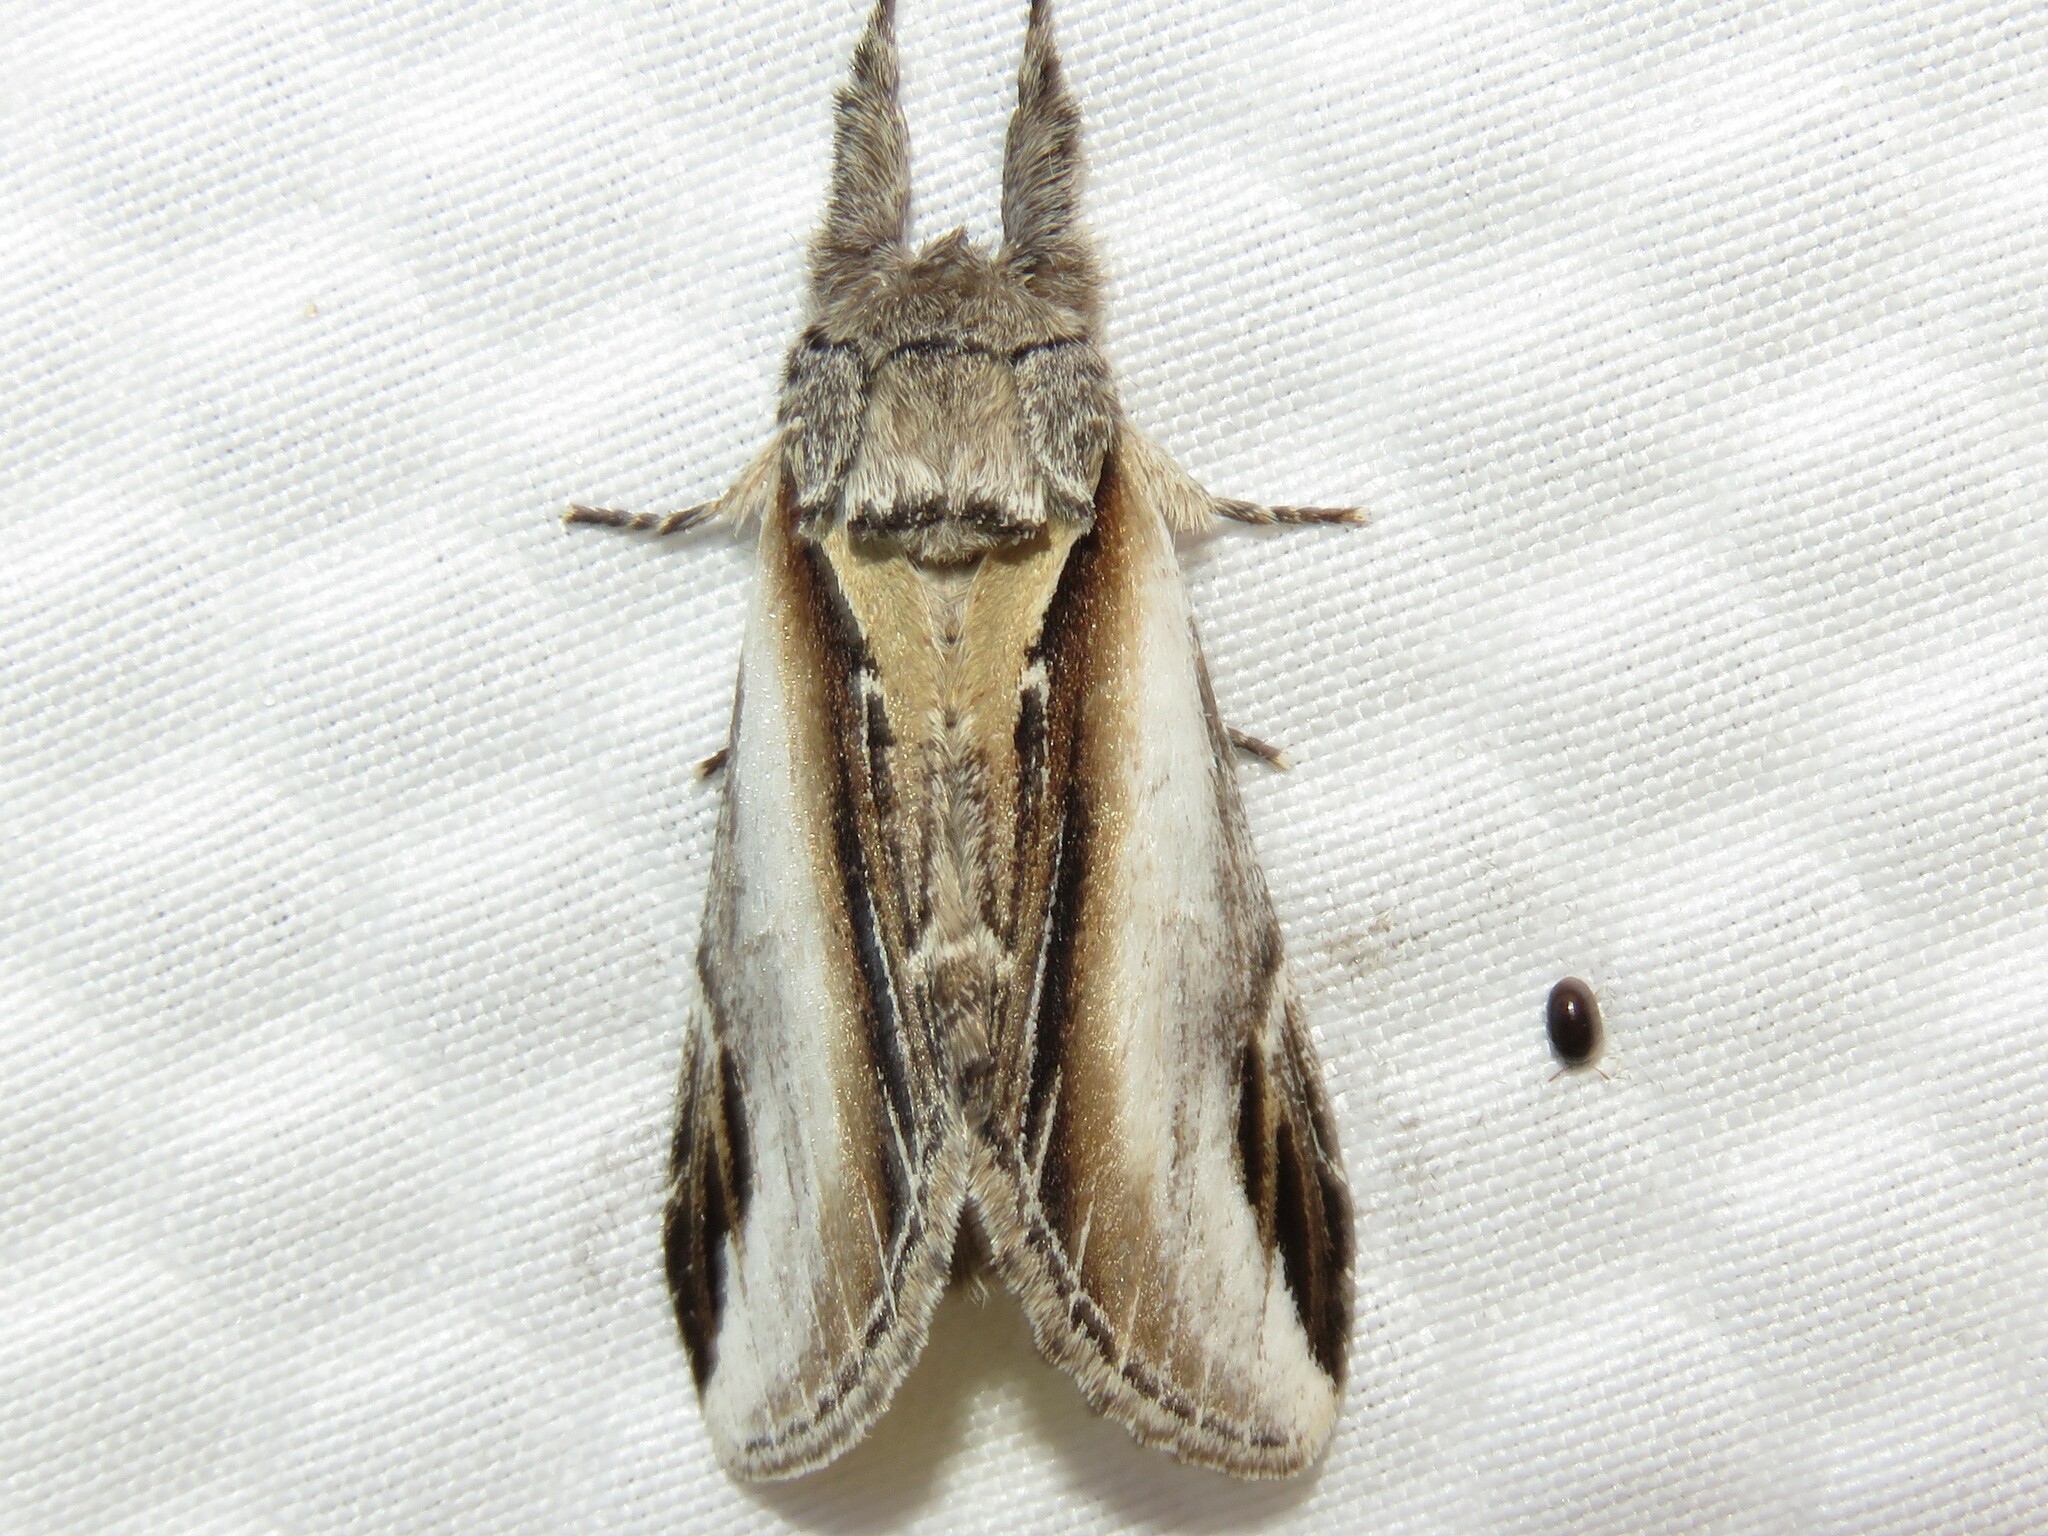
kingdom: Animalia
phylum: Arthropoda
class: Insecta
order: Lepidoptera
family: Notodontidae
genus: Pheosia
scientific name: Pheosia rimosa
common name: Black-rimmed prominent
